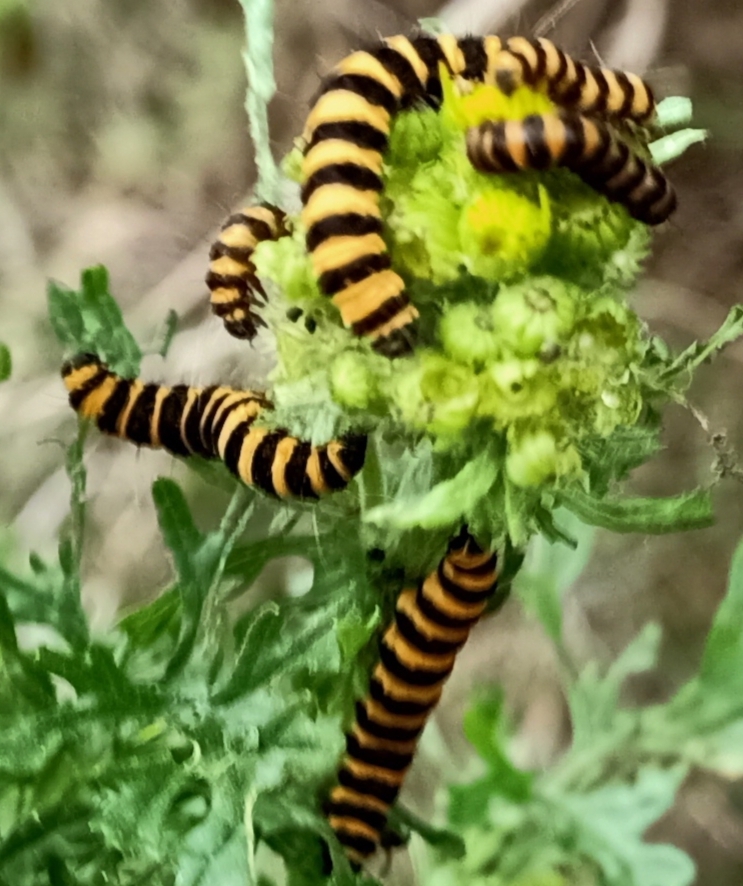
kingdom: Animalia
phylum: Arthropoda
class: Insecta
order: Lepidoptera
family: Erebidae
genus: Tyria
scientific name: Tyria jacobaeae
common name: Cinnabar
